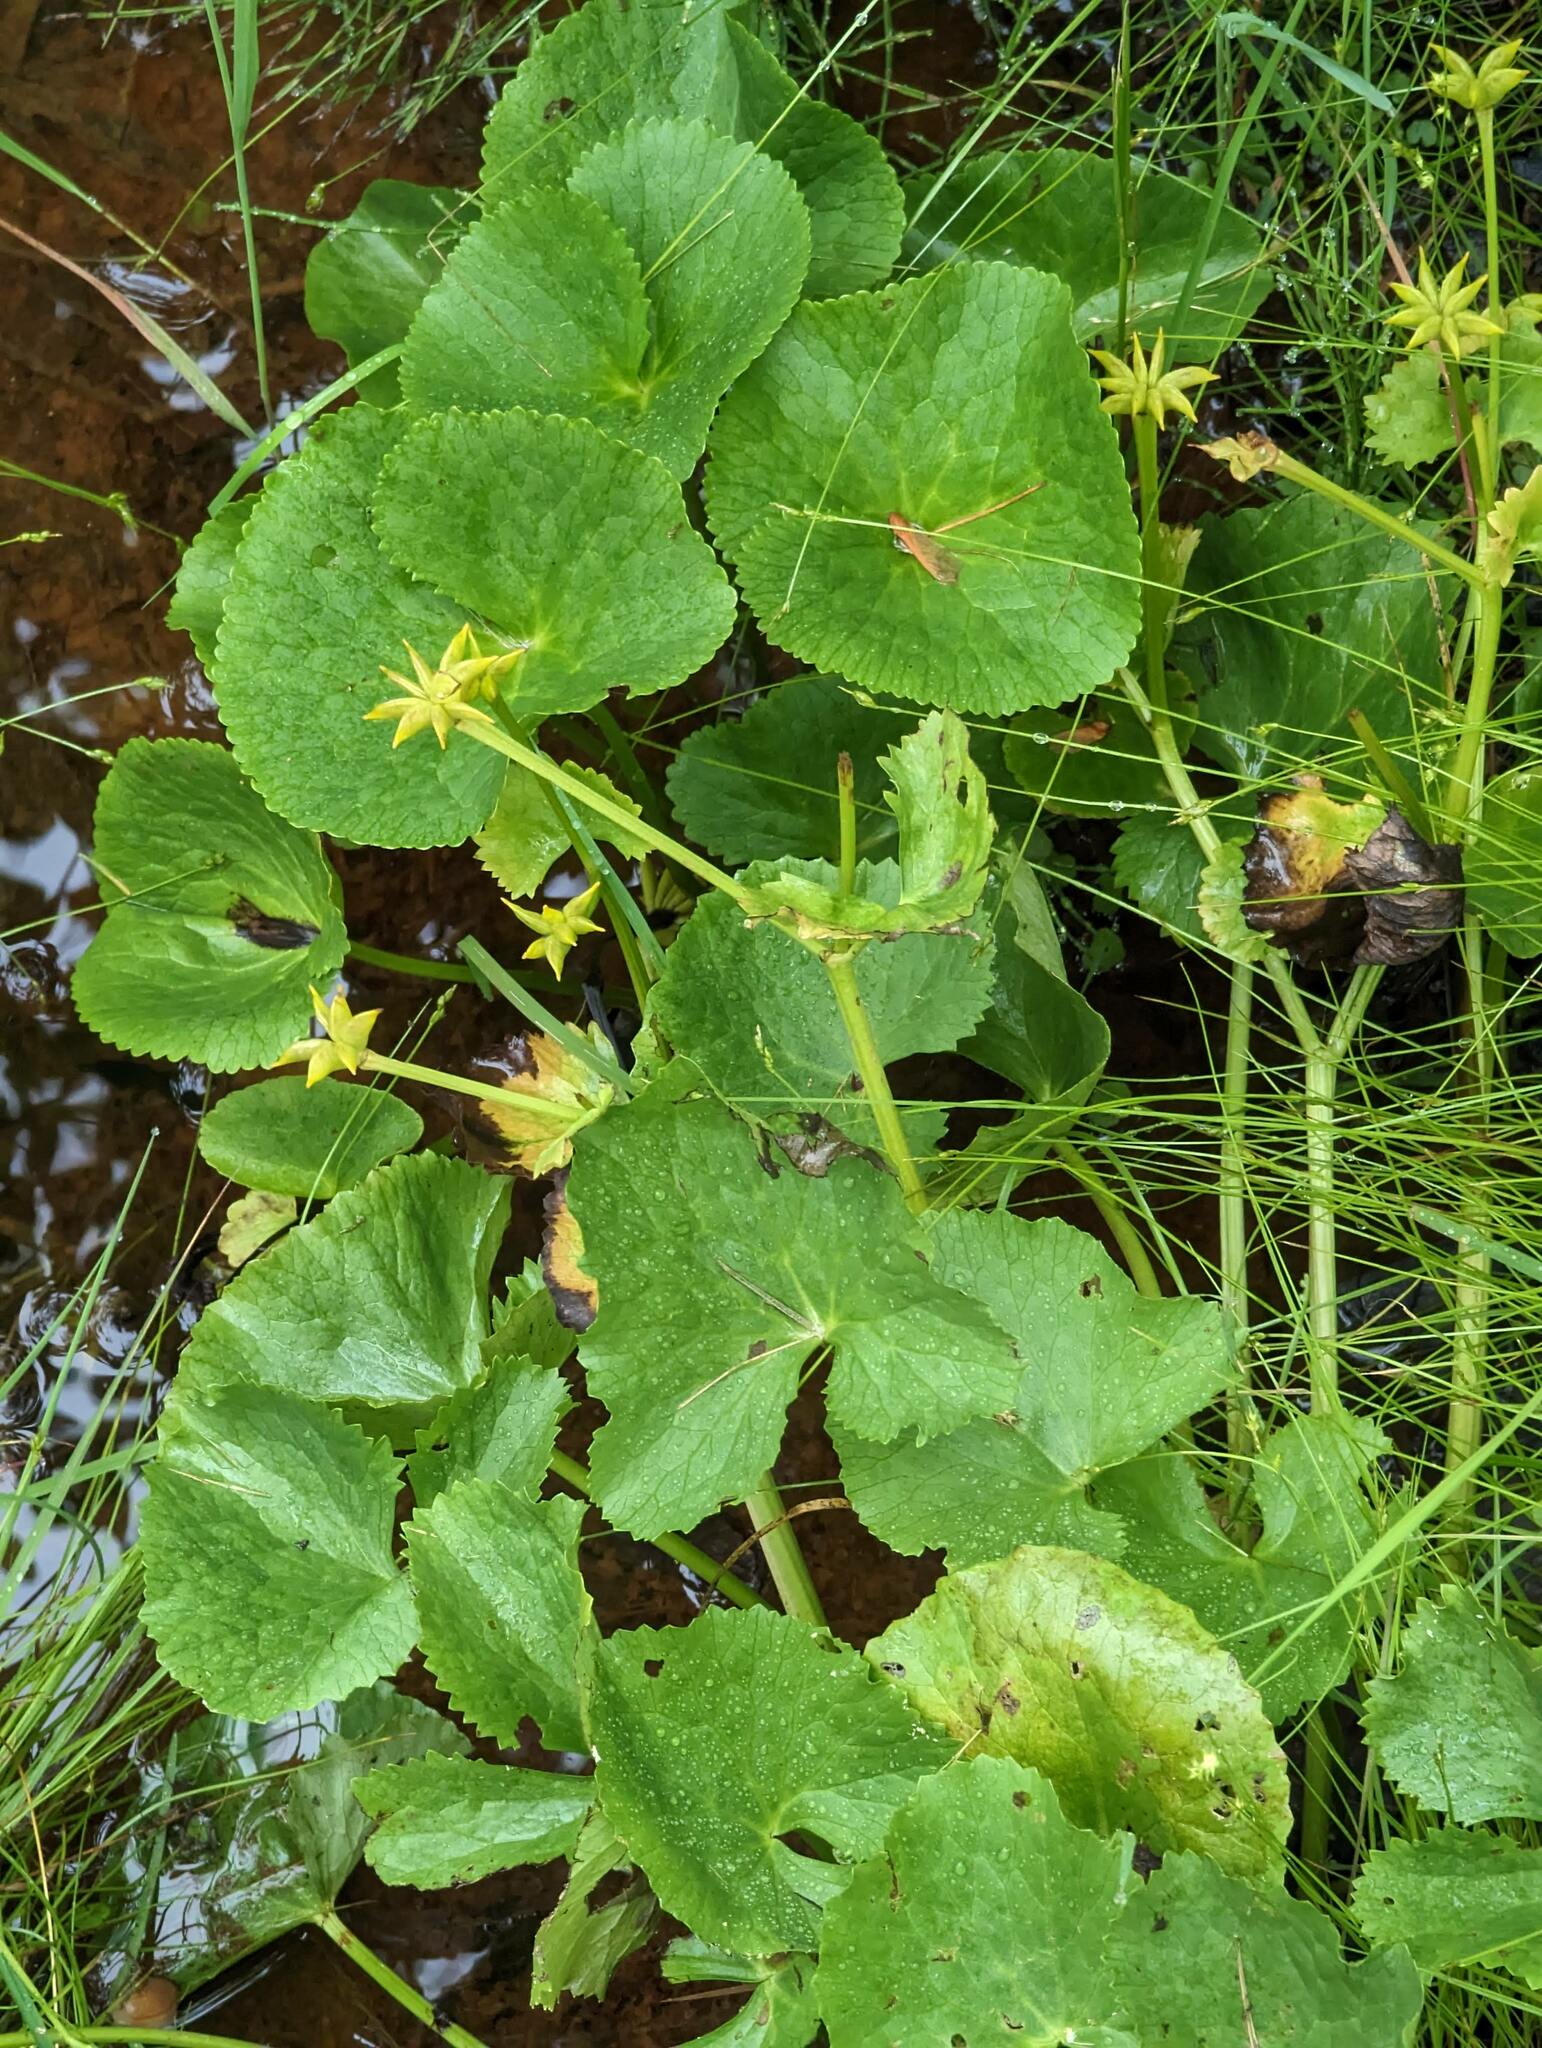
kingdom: Plantae
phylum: Tracheophyta
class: Magnoliopsida
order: Ranunculales
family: Ranunculaceae
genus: Caltha
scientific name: Caltha palustris
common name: Marsh marigold
